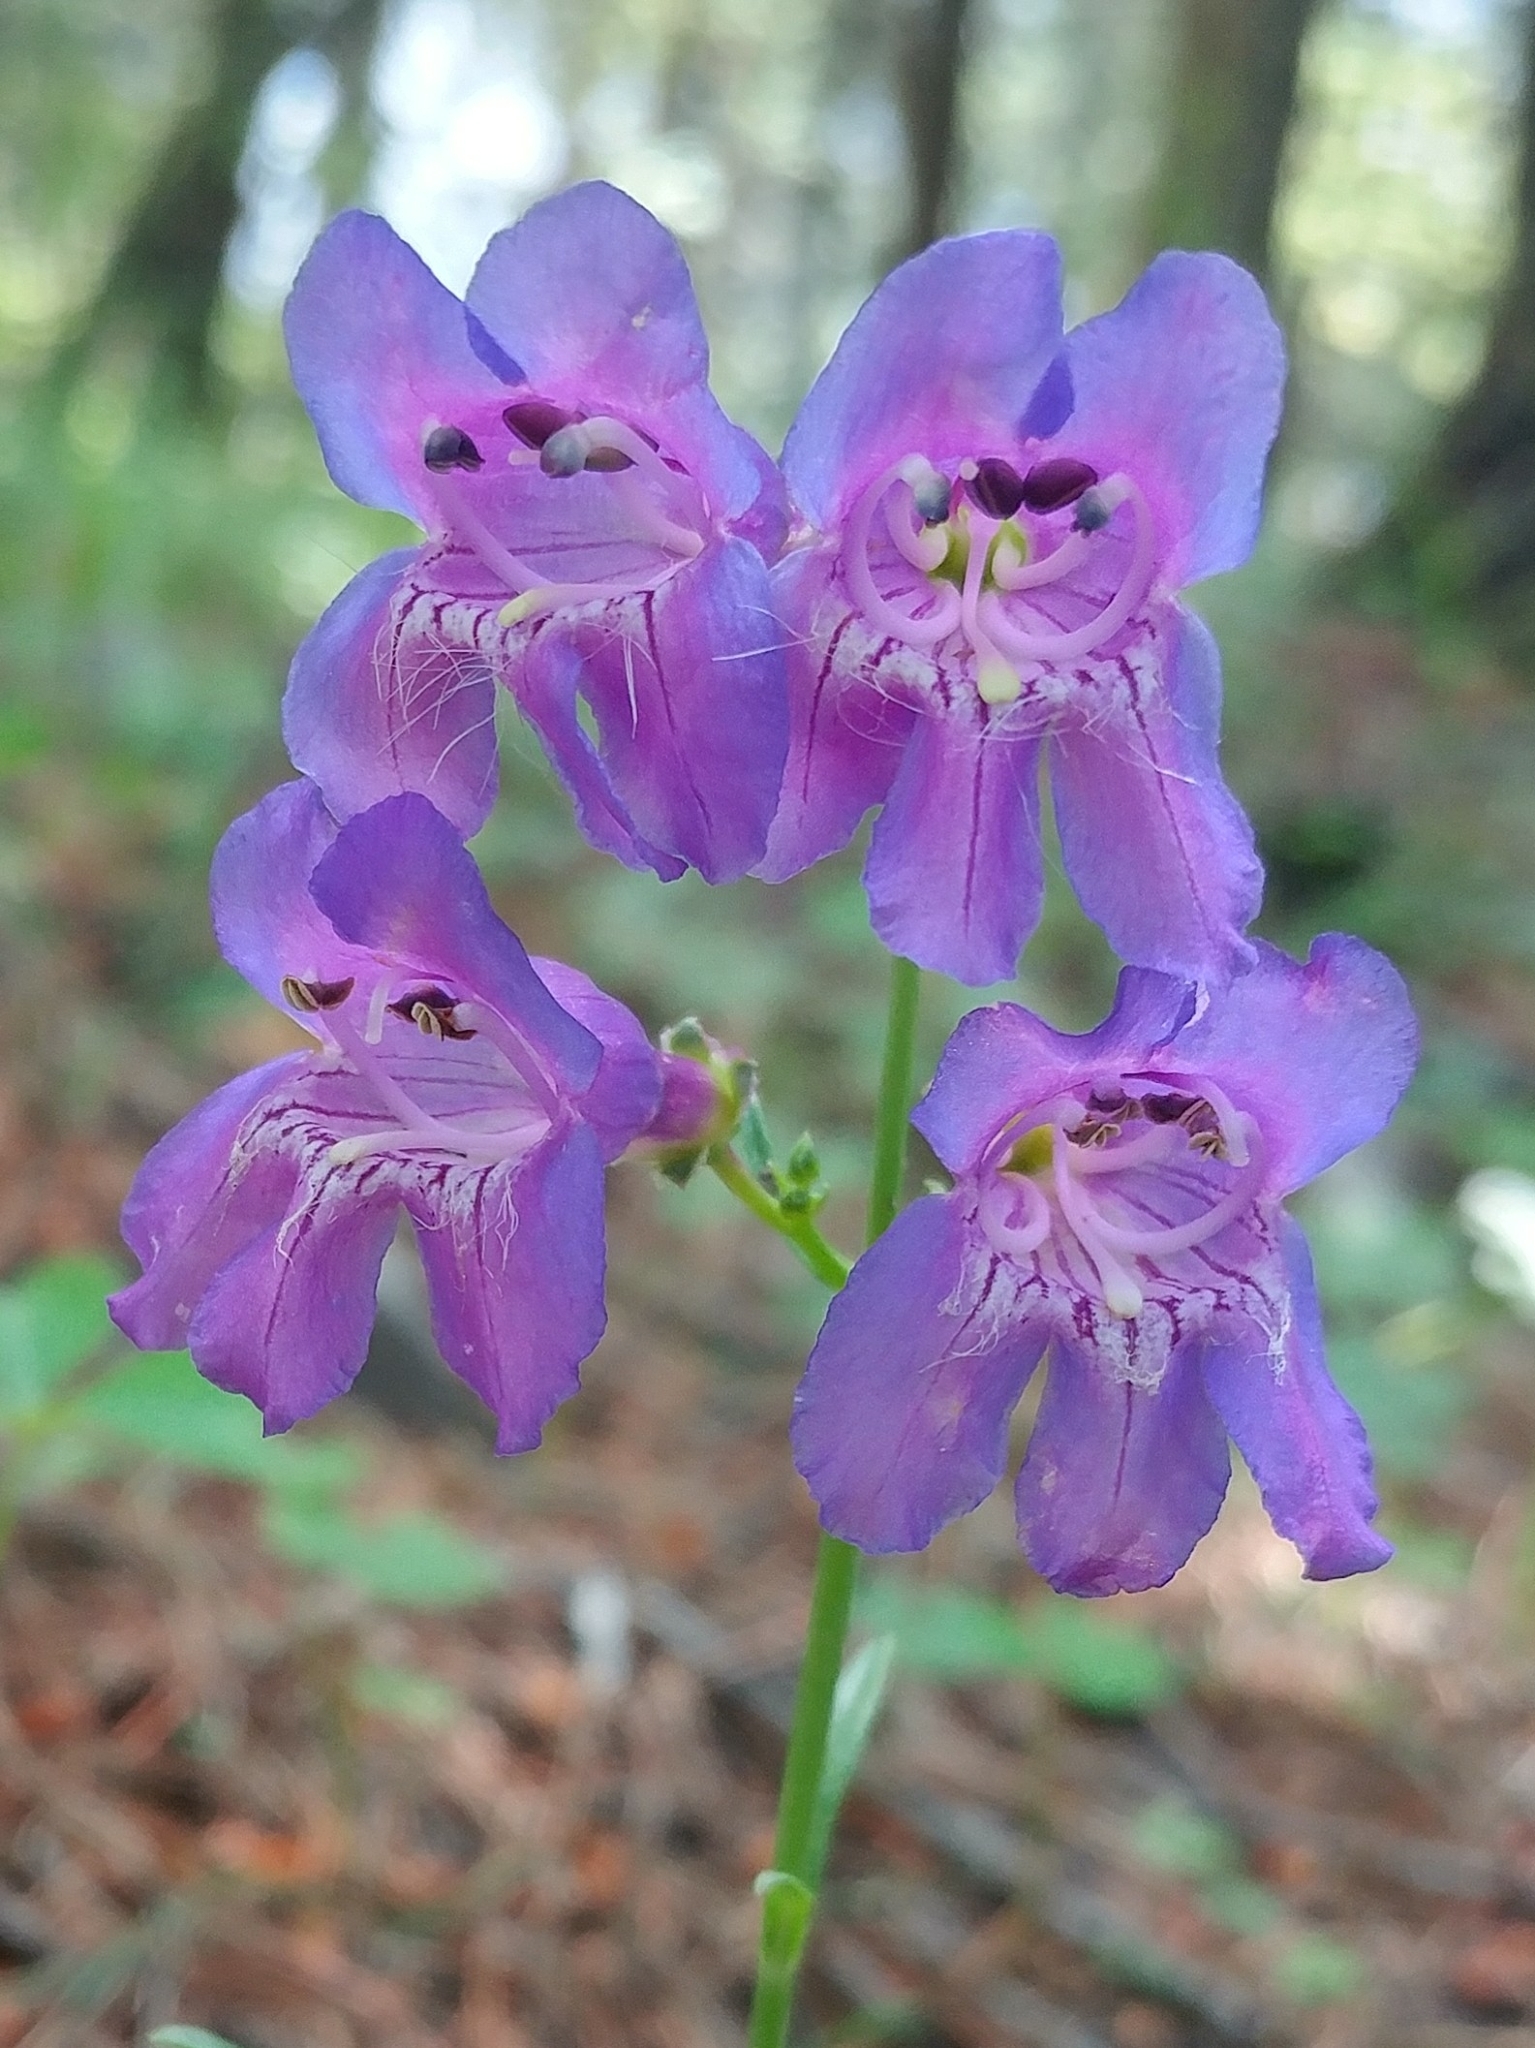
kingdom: Plantae
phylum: Tracheophyta
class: Magnoliopsida
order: Lamiales
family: Plantaginaceae
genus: Penstemon
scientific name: Penstemon neomexicanus
